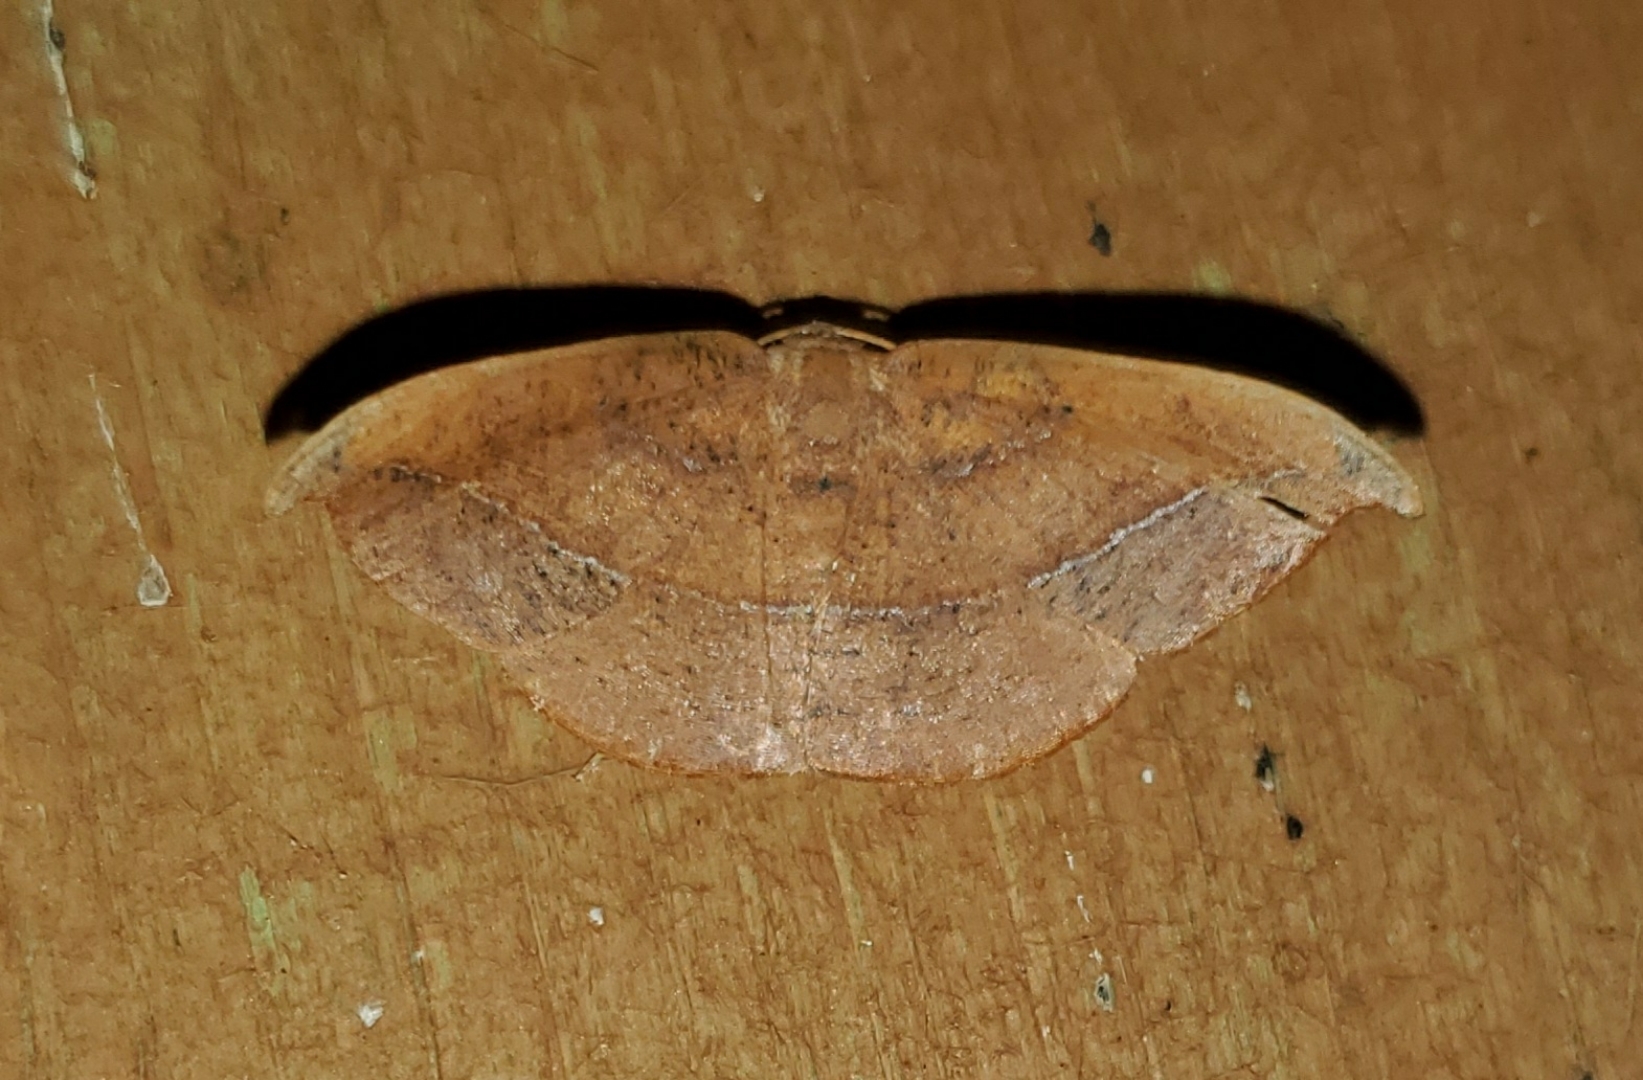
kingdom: Animalia
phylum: Arthropoda
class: Insecta
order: Lepidoptera
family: Geometridae
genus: Patalene
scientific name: Patalene olyzonaria
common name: Juniper geometer moth
